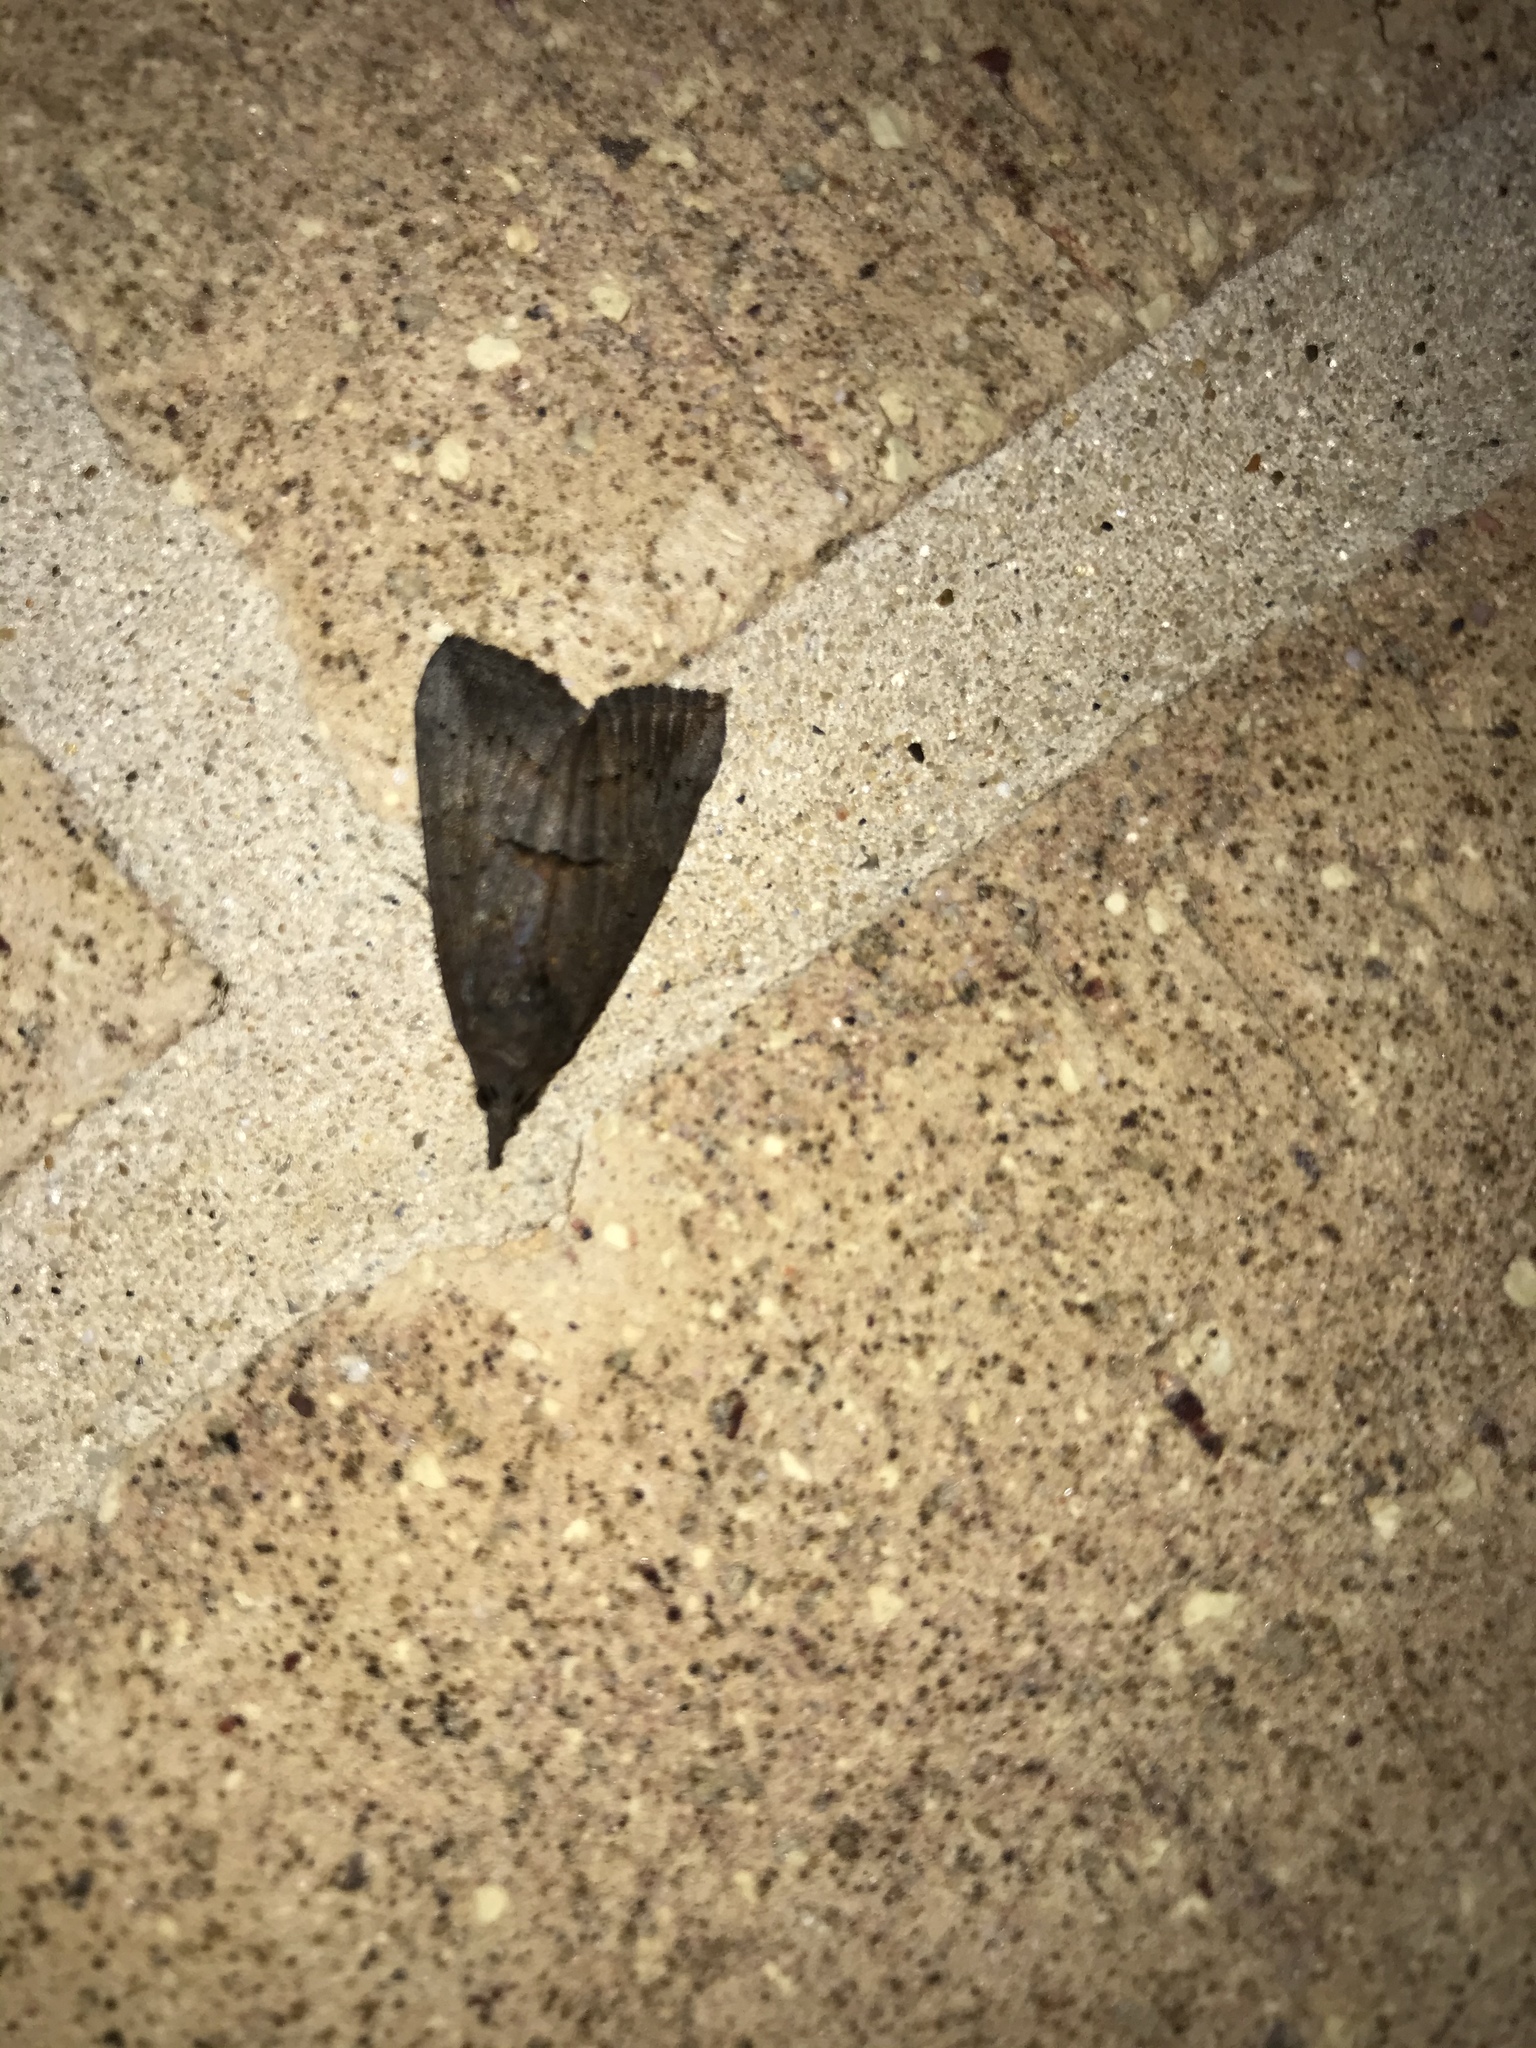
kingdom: Animalia
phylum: Arthropoda
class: Insecta
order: Lepidoptera
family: Erebidae
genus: Hypena
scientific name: Hypena scabra
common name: Green cloverworm
